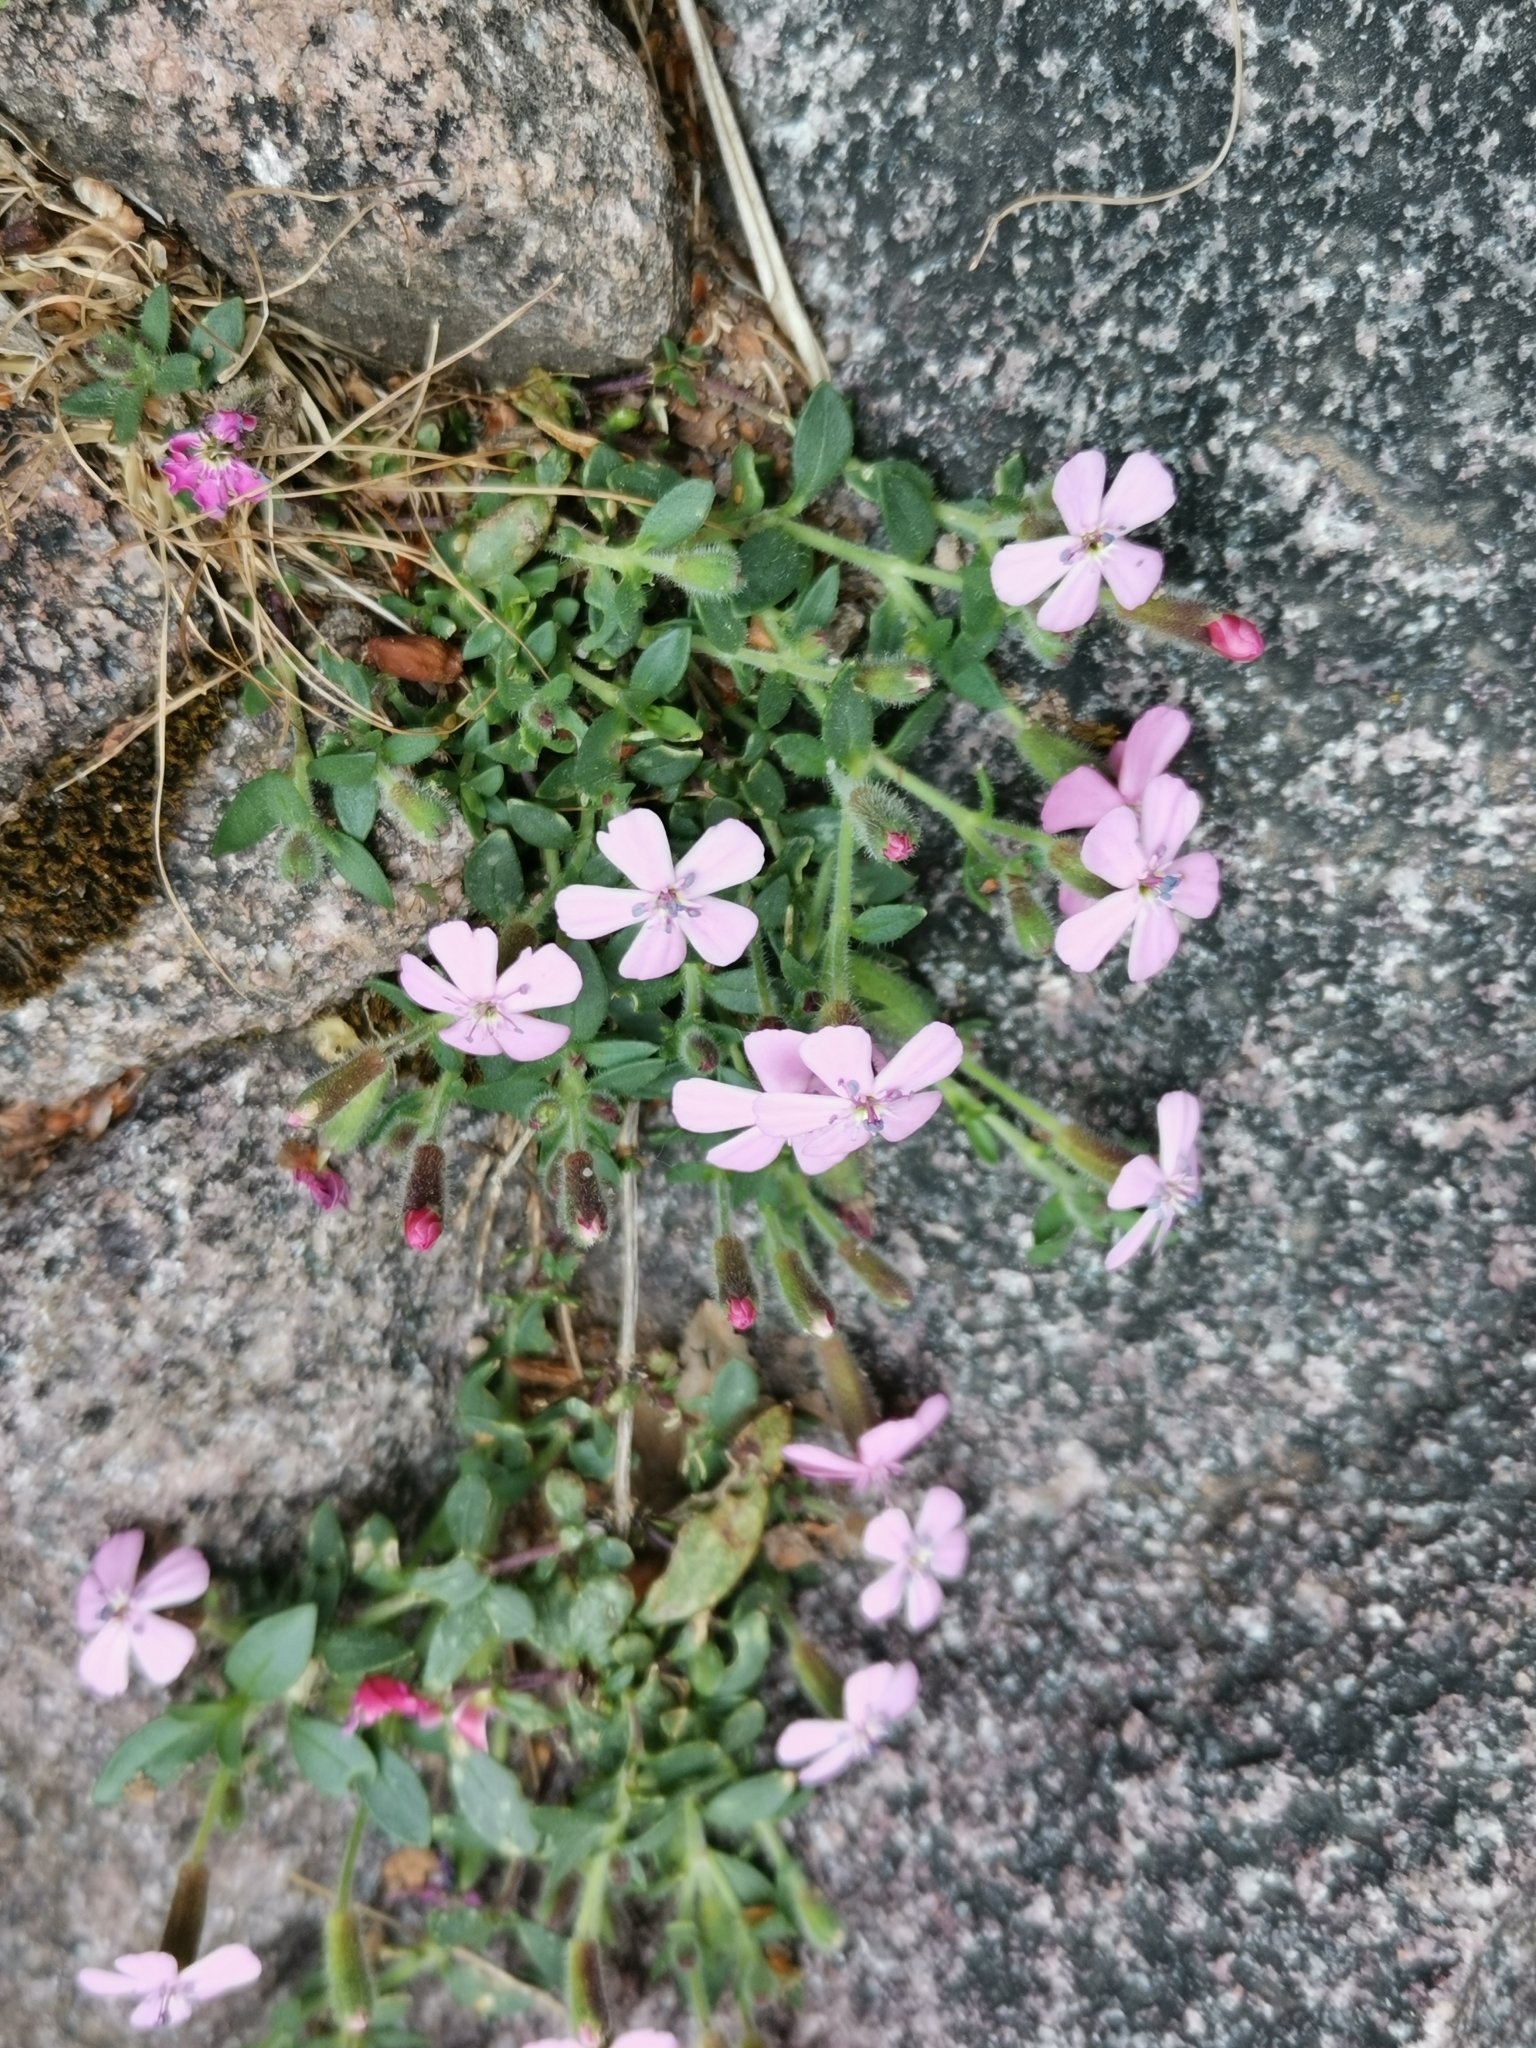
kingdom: Plantae
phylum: Tracheophyta
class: Magnoliopsida
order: Caryophyllales
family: Caryophyllaceae
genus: Saponaria
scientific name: Saponaria ocymoides
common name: Rock soapwort
